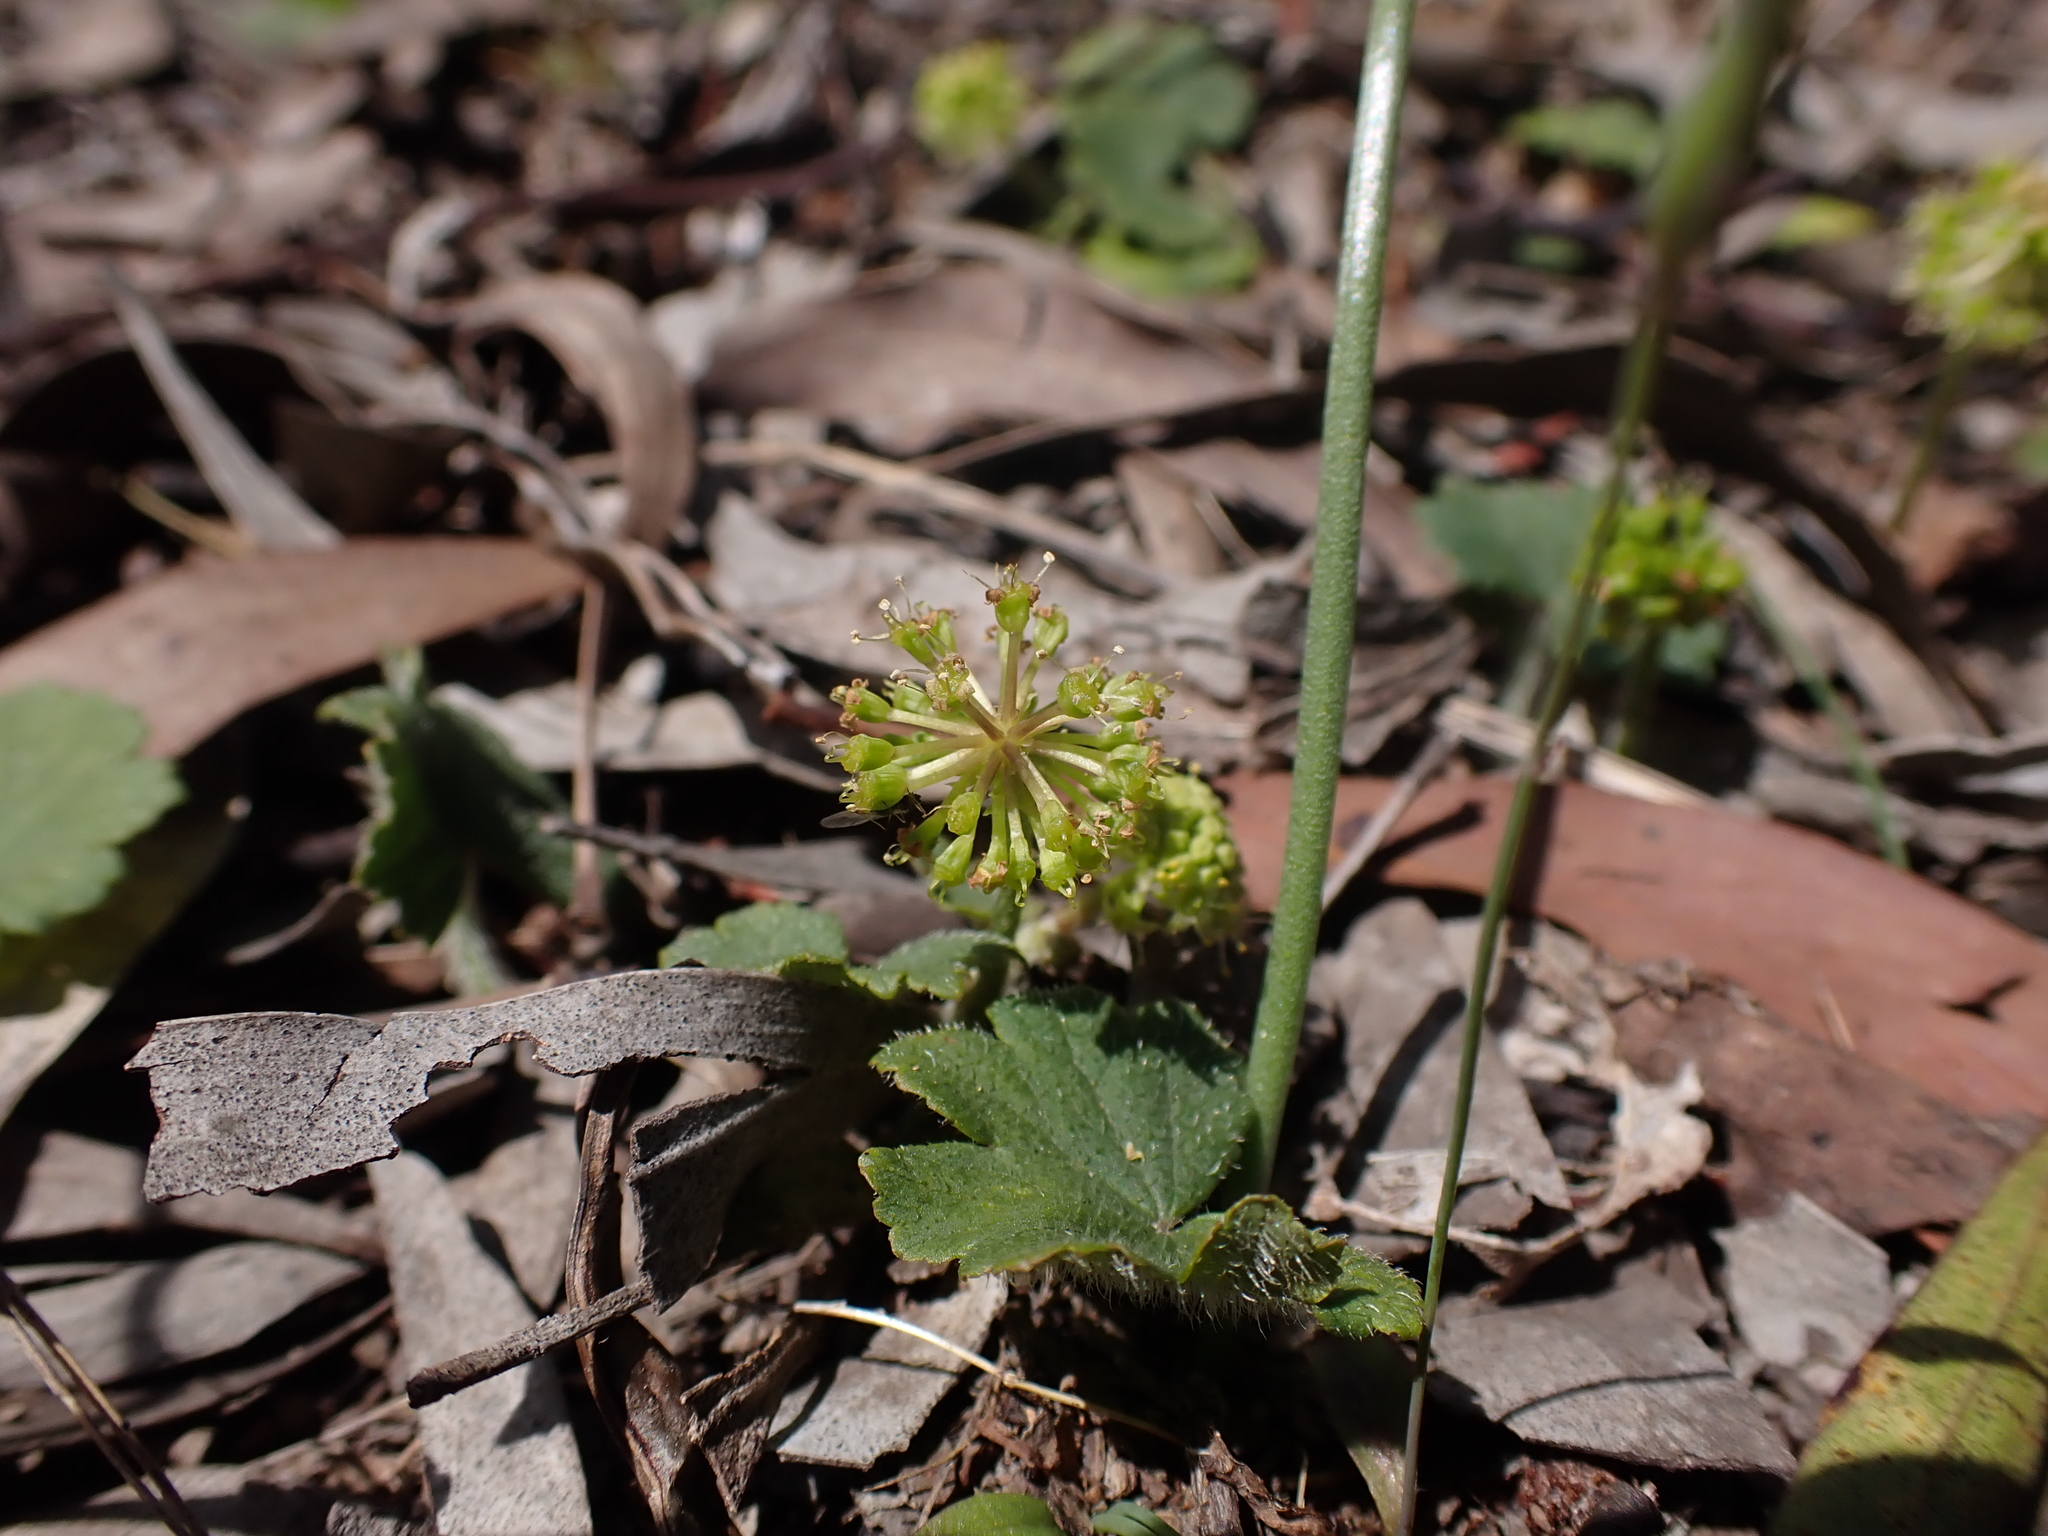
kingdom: Plantae
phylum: Tracheophyta
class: Magnoliopsida
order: Apiales
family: Araliaceae
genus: Hydrocotyle
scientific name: Hydrocotyle laxiflora
